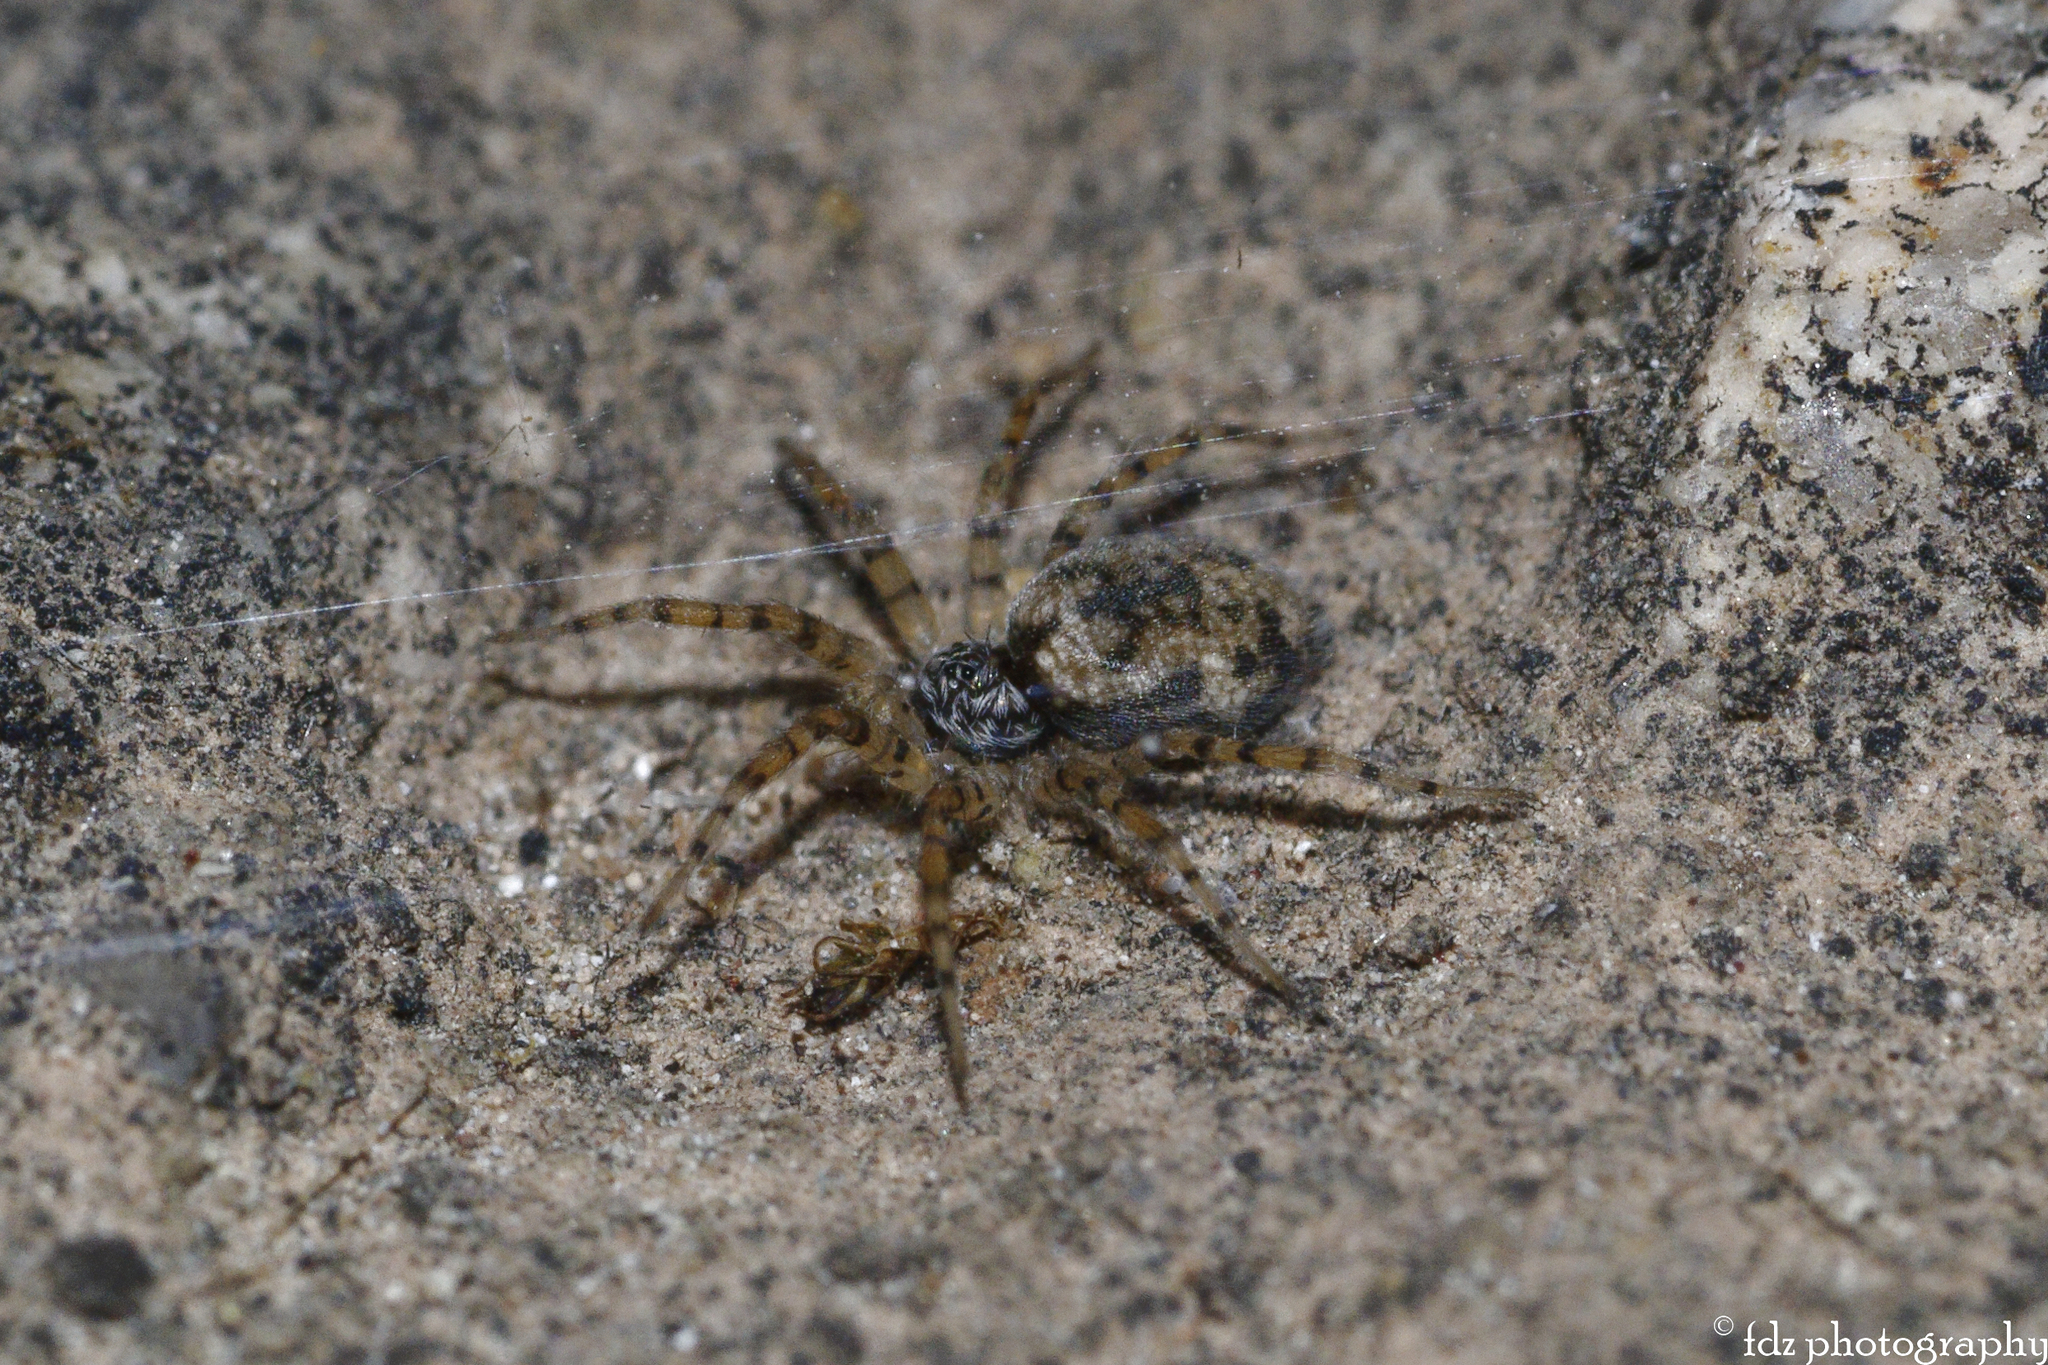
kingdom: Animalia
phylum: Arthropoda
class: Arachnida
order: Araneae
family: Oecobiidae
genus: Oecobius
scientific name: Oecobius maculatus
